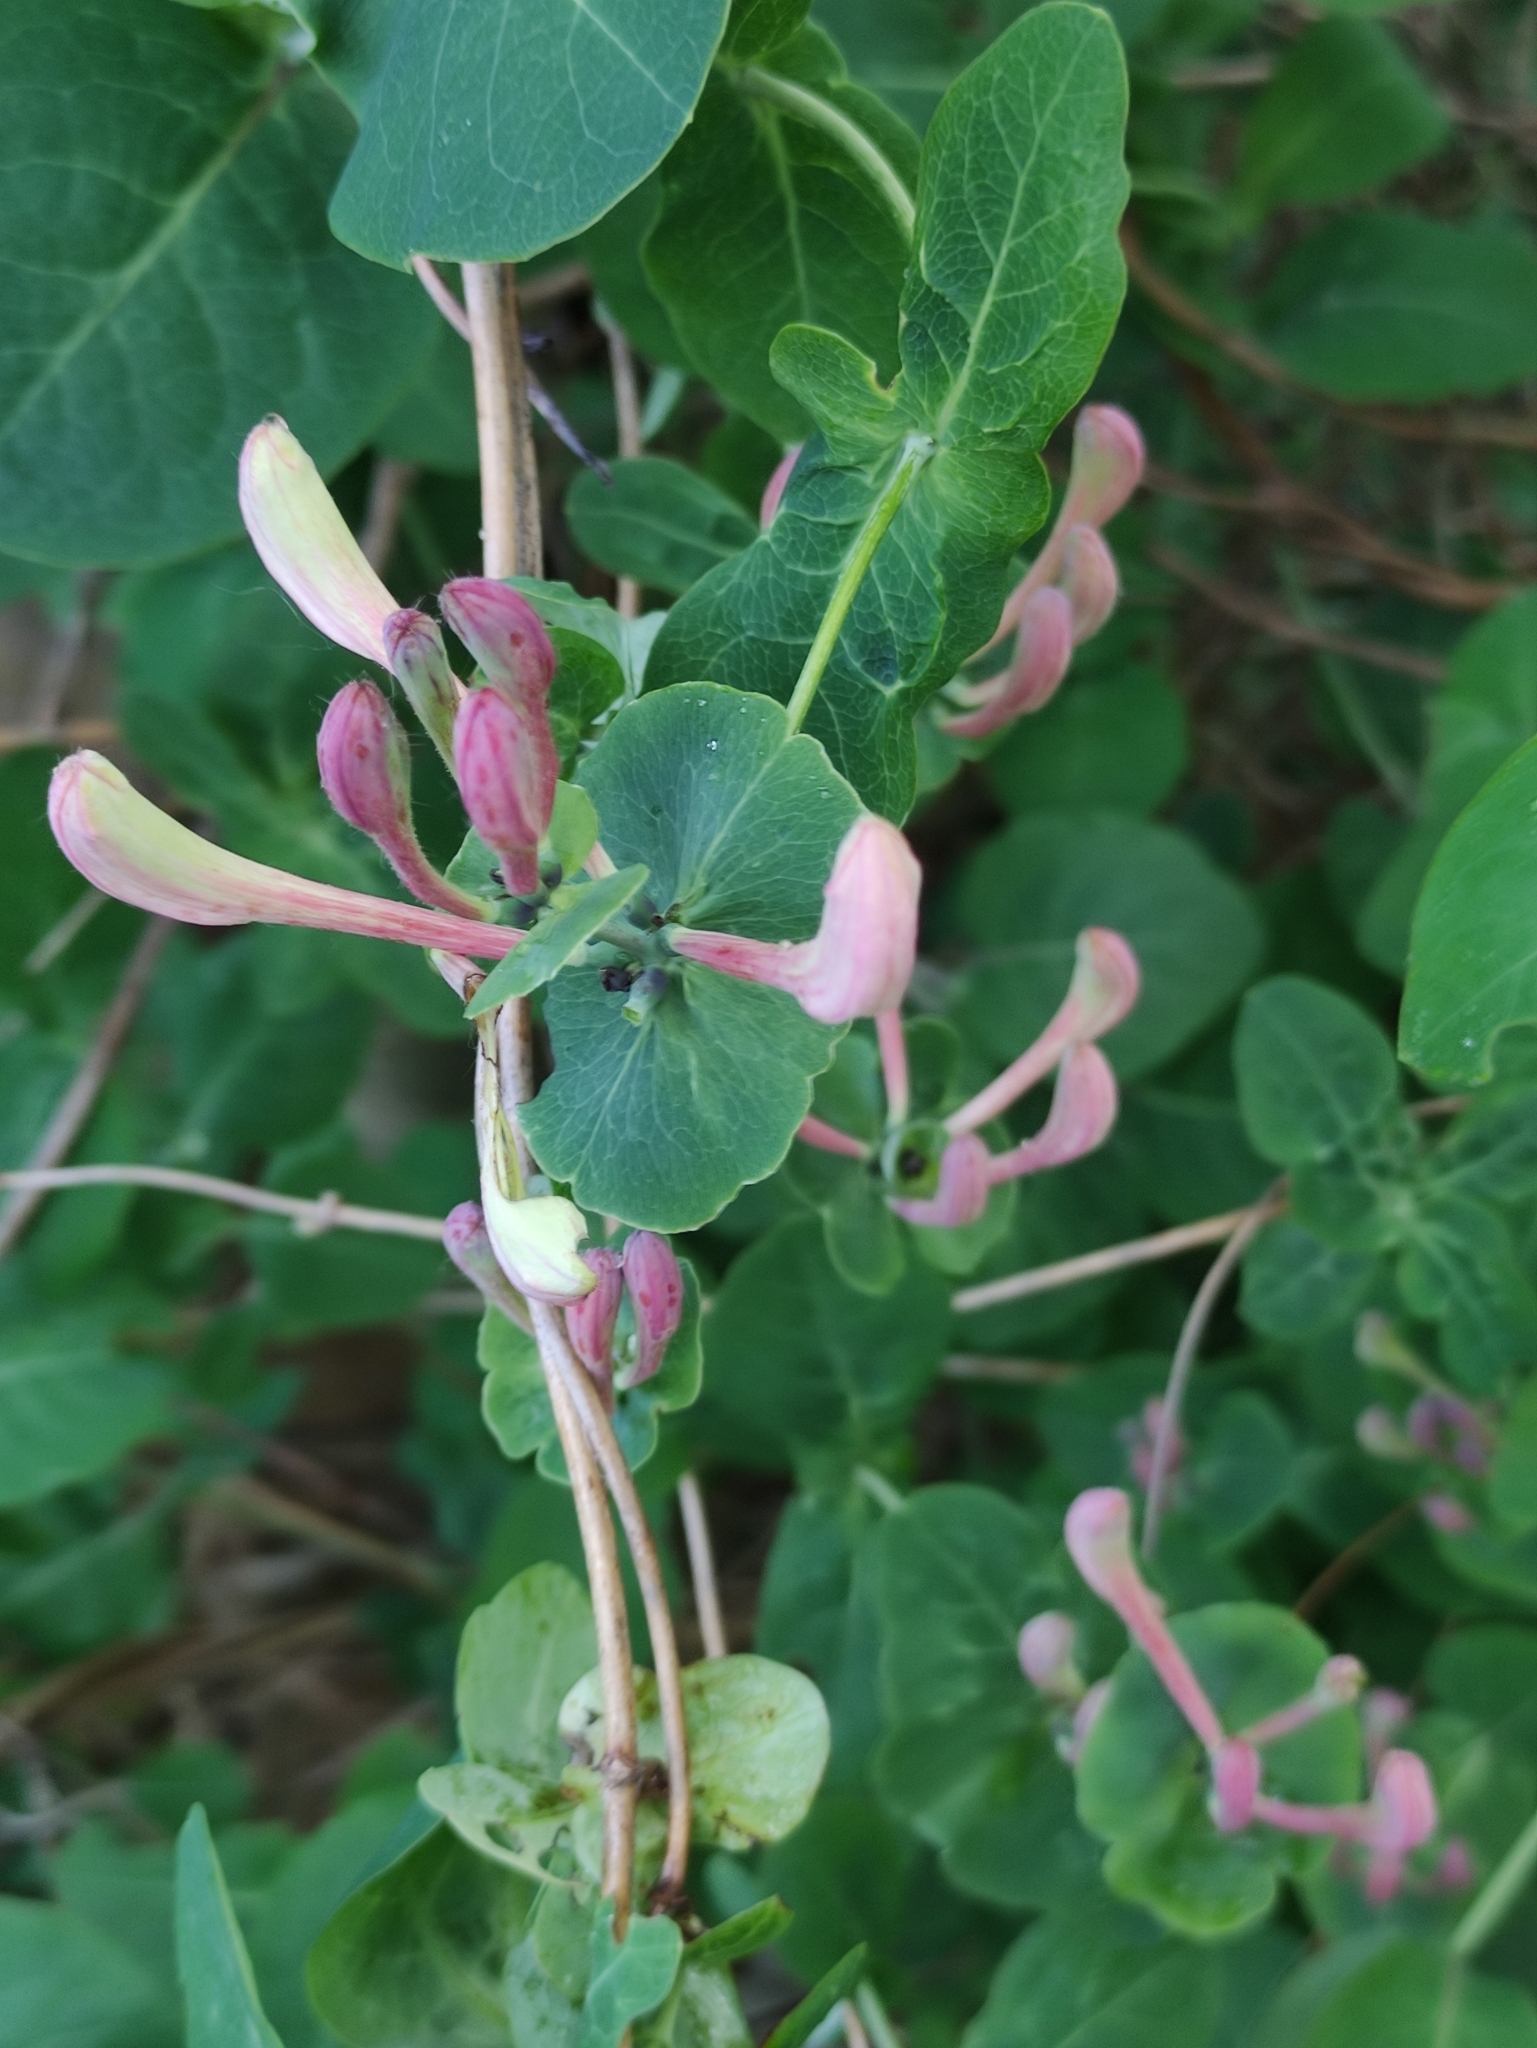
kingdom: Plantae
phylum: Tracheophyta
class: Magnoliopsida
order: Dipsacales
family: Caprifoliaceae
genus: Lonicera
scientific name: Lonicera caprifolium
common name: Perfoliate honeysuckle
